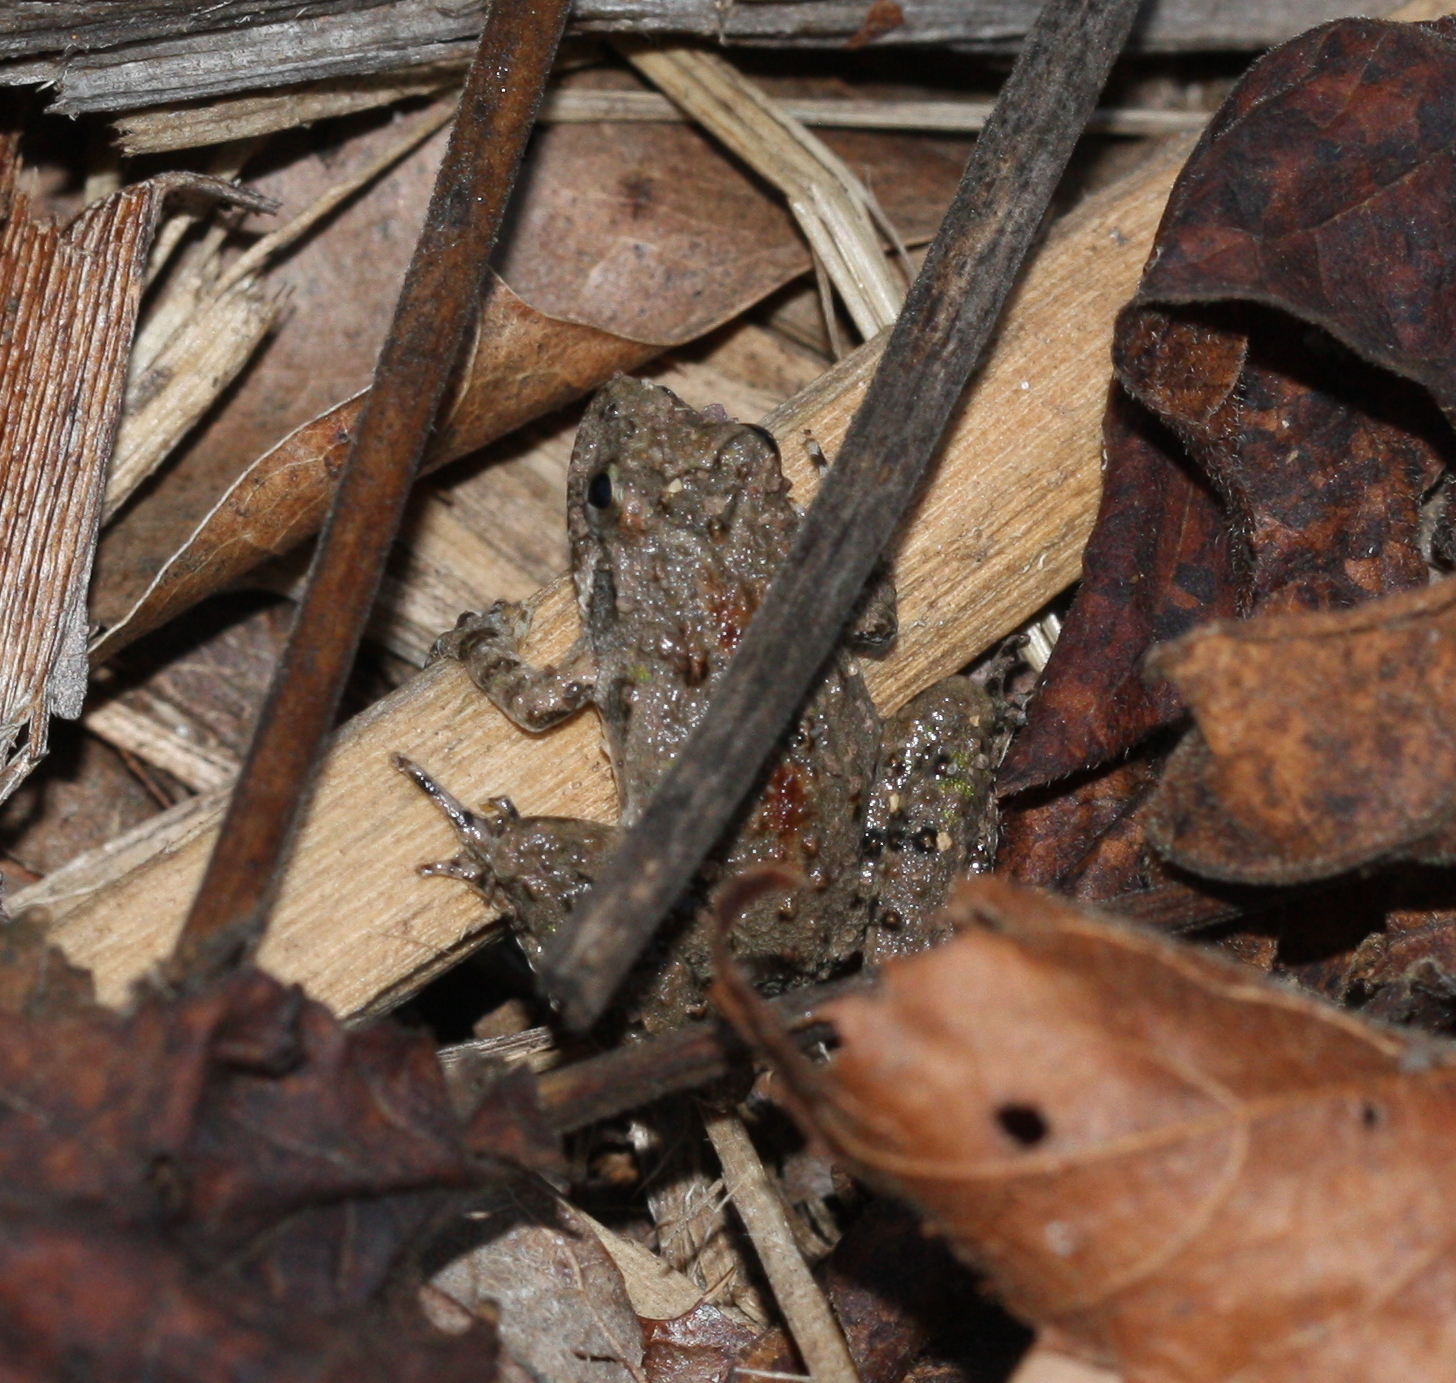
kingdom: Animalia
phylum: Chordata
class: Amphibia
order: Anura
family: Hylidae
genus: Acris
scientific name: Acris blanchardi
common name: Blanchard's cricket frog
